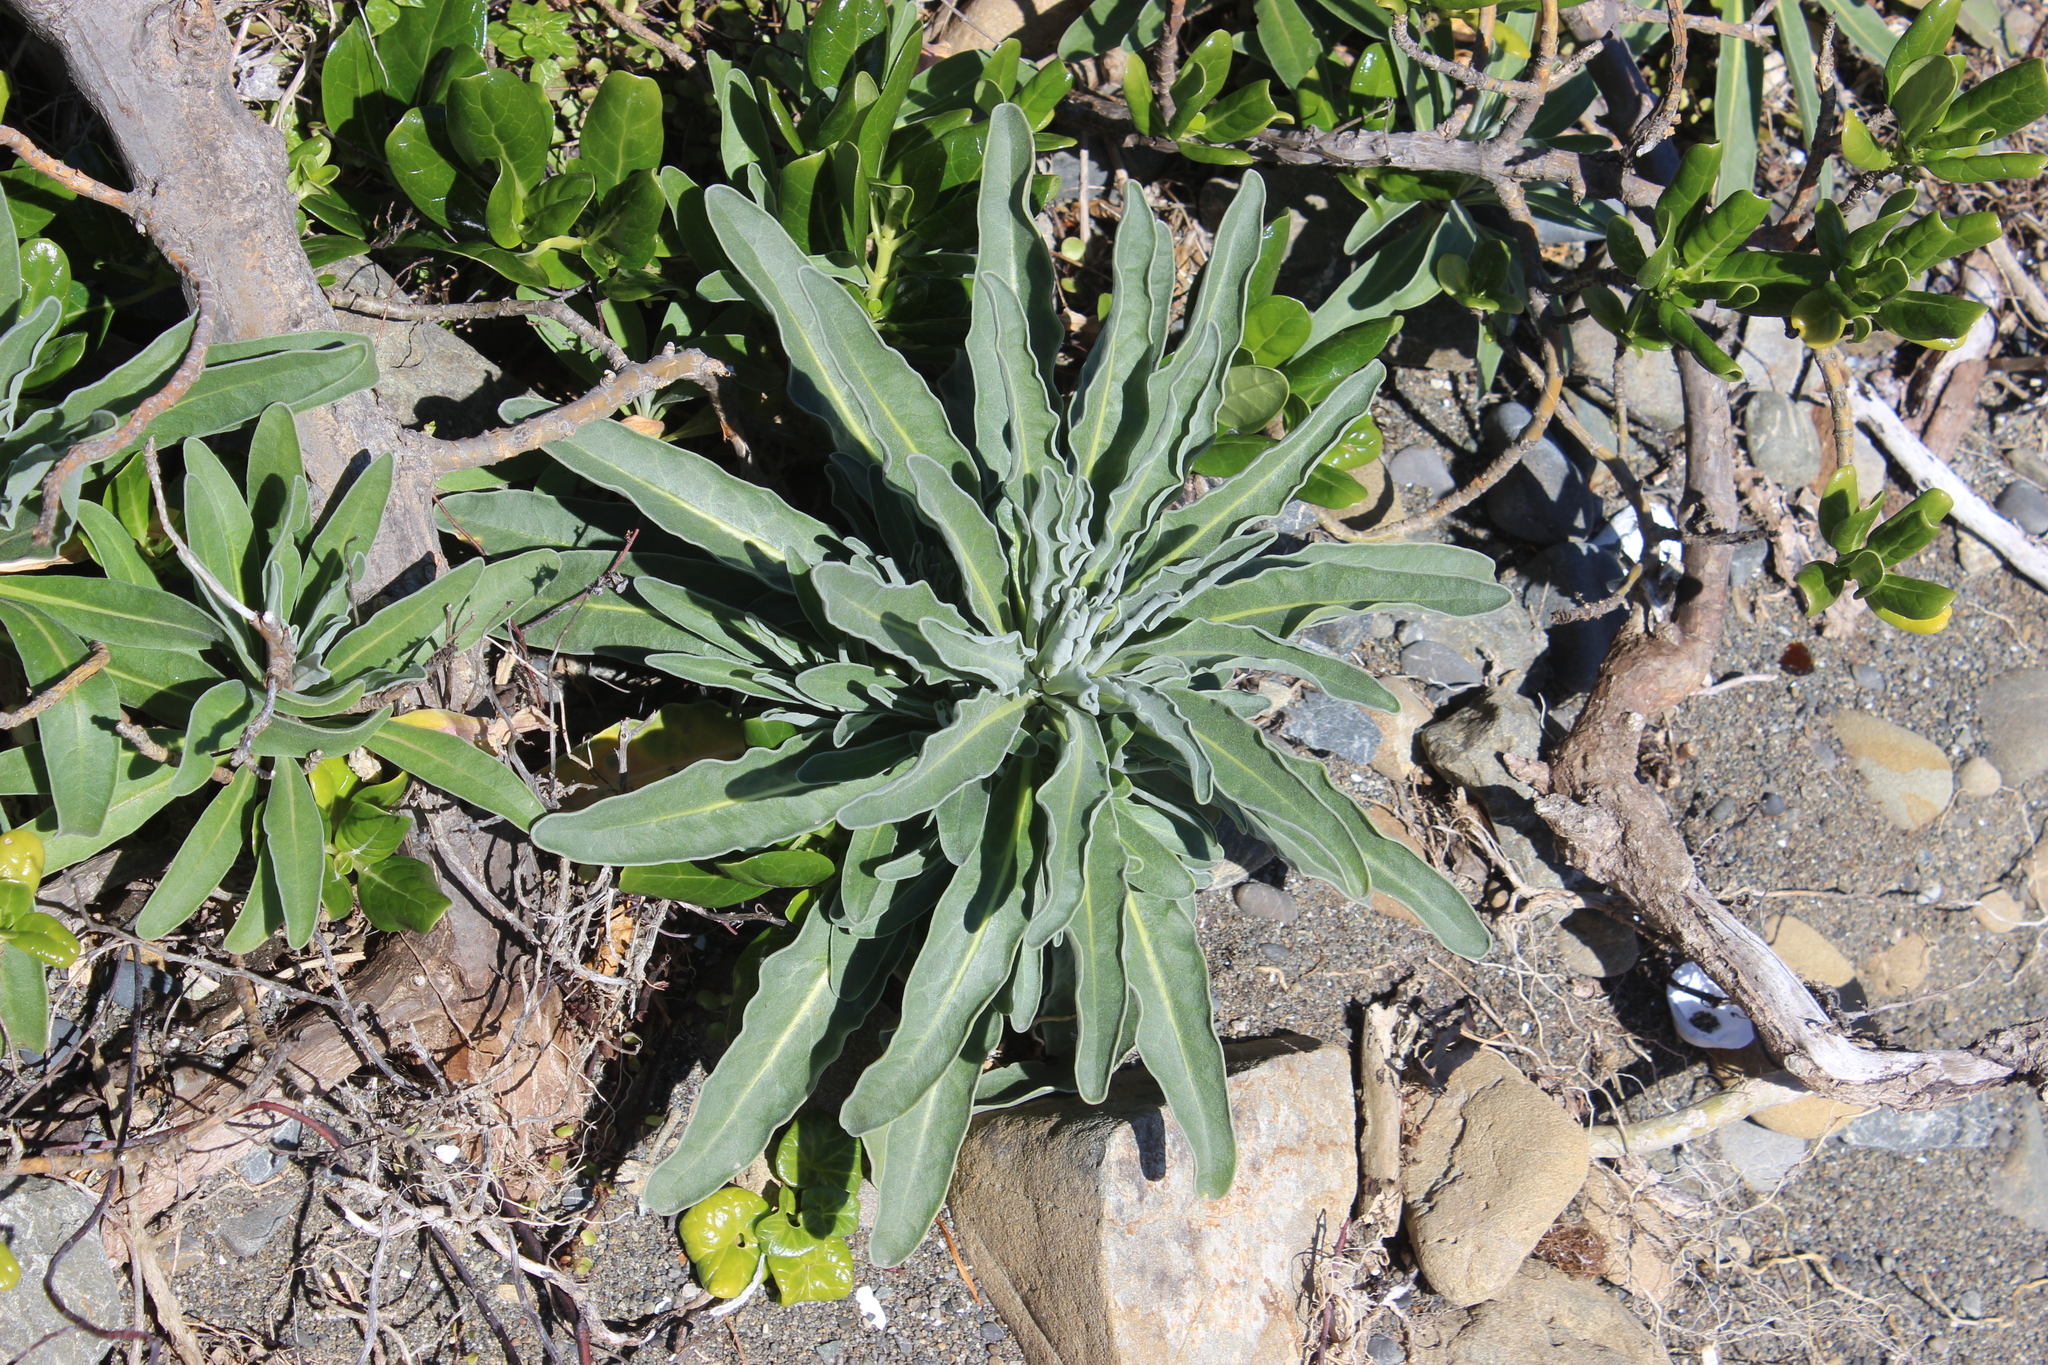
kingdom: Plantae
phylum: Tracheophyta
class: Magnoliopsida
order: Brassicales
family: Brassicaceae
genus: Matthiola
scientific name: Matthiola incana
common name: Hoary stock
